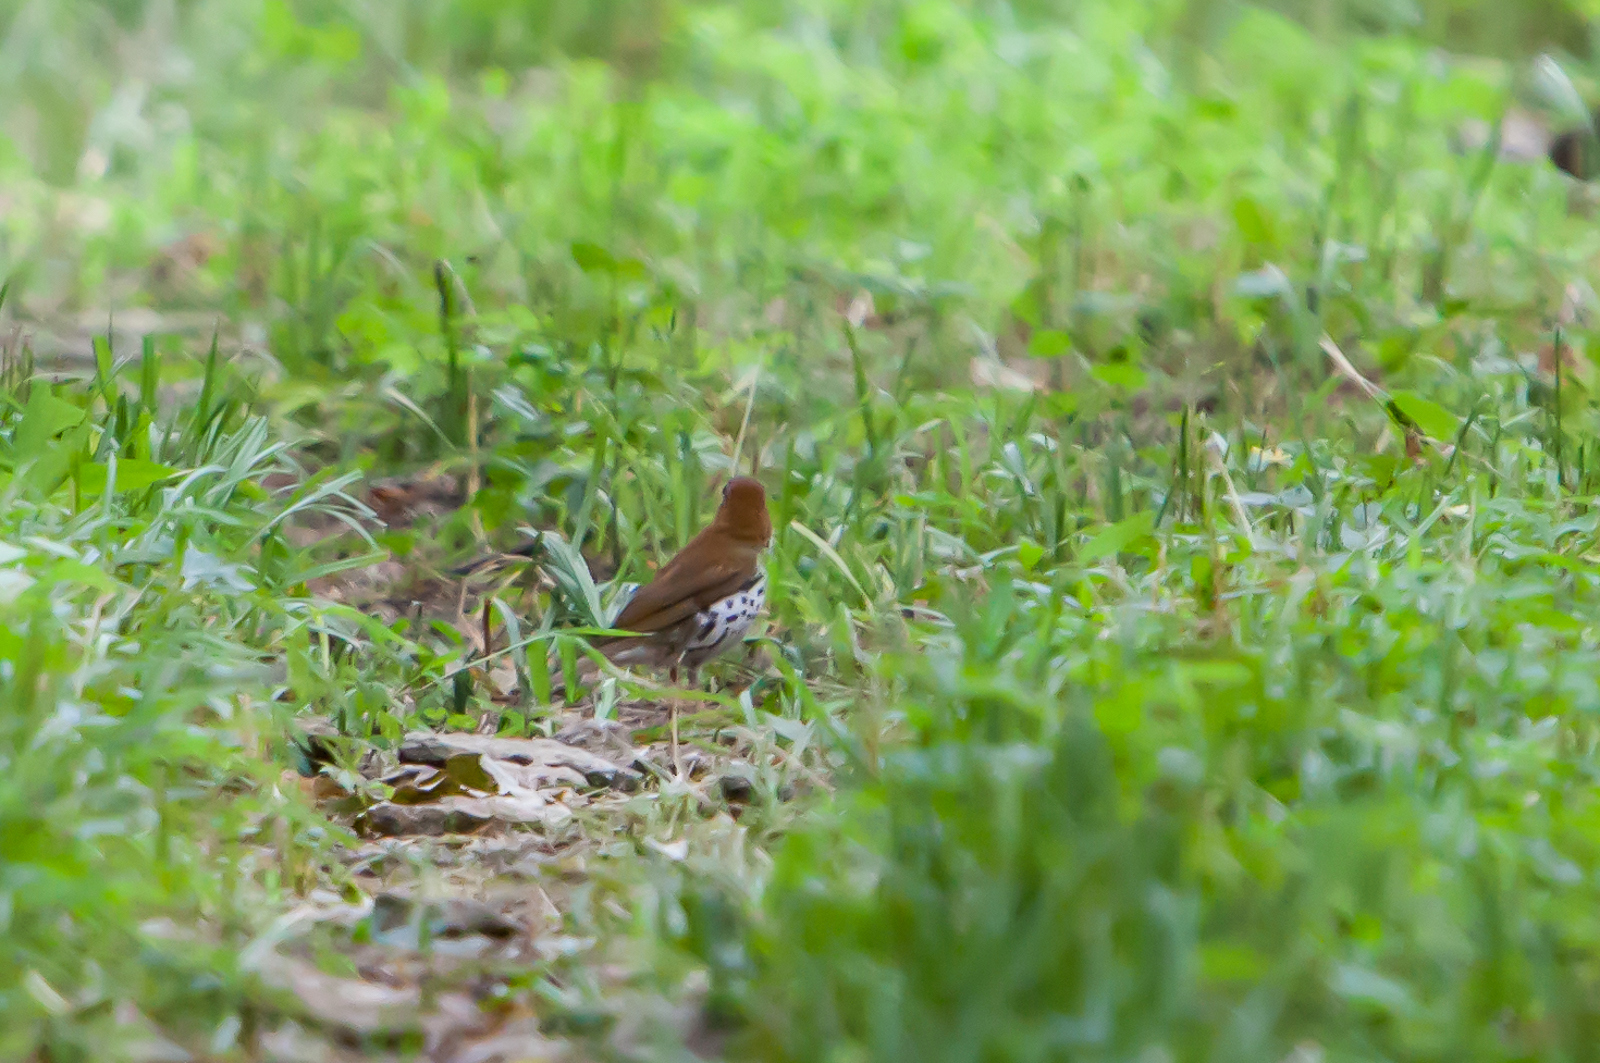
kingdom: Animalia
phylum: Chordata
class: Aves
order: Passeriformes
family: Turdidae
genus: Hylocichla
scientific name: Hylocichla mustelina
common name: Wood thrush
